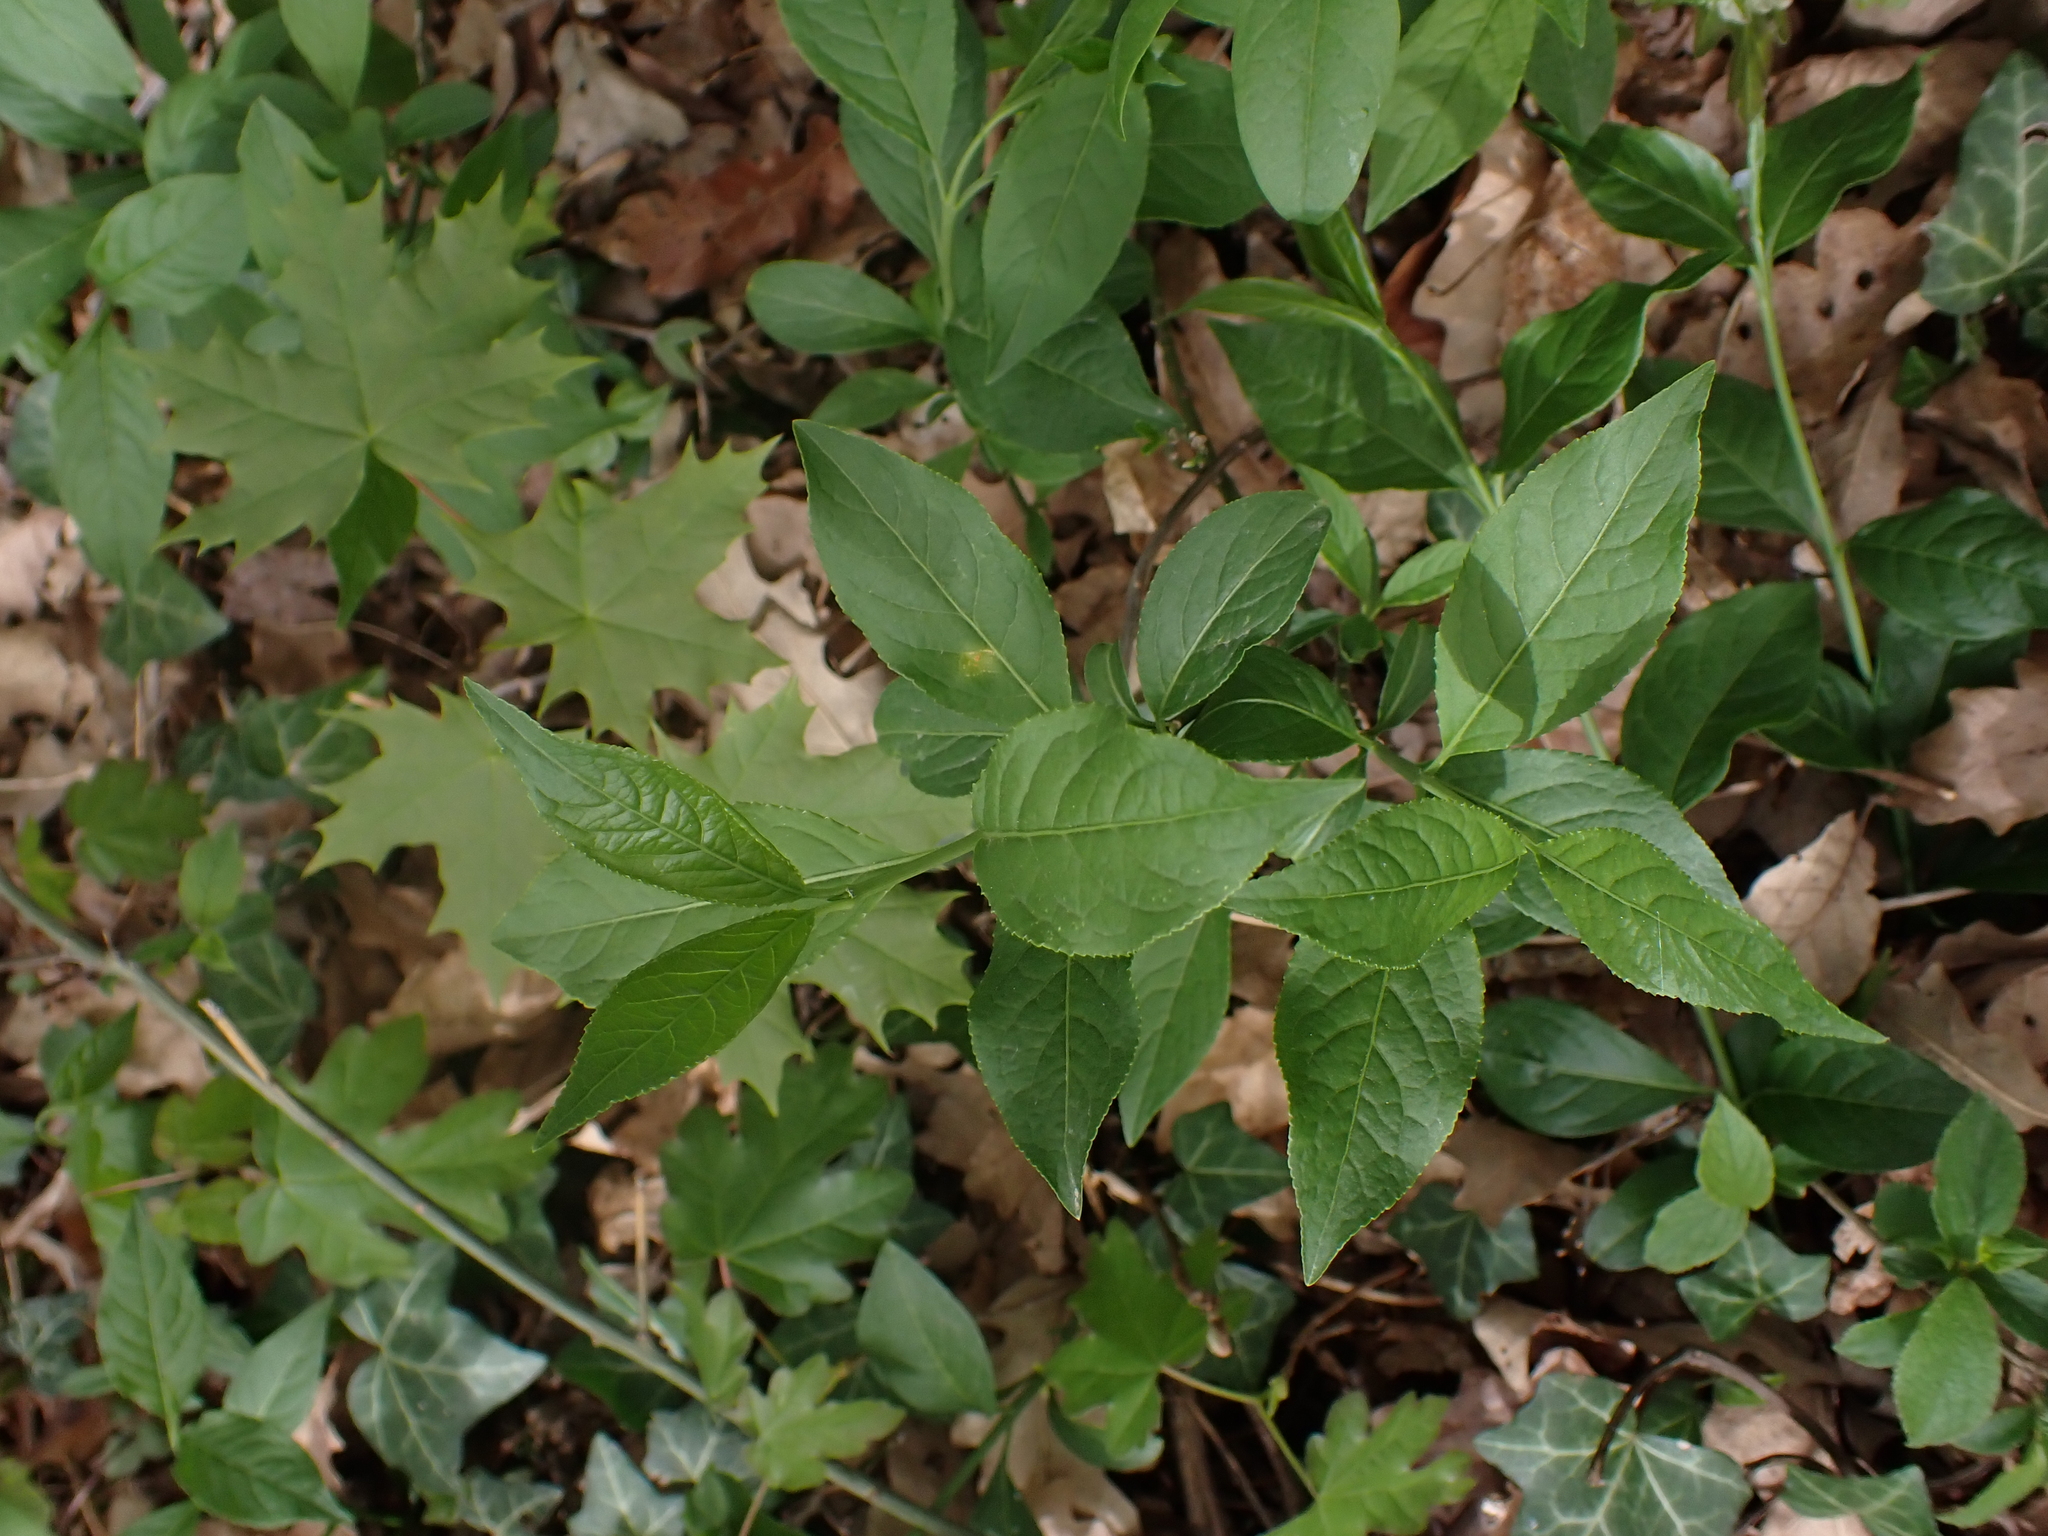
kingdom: Fungi
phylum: Basidiomycota
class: Pucciniomycetes
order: Pucciniales
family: Melampsoraceae
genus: Melampsora
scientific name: Melampsora epitea
